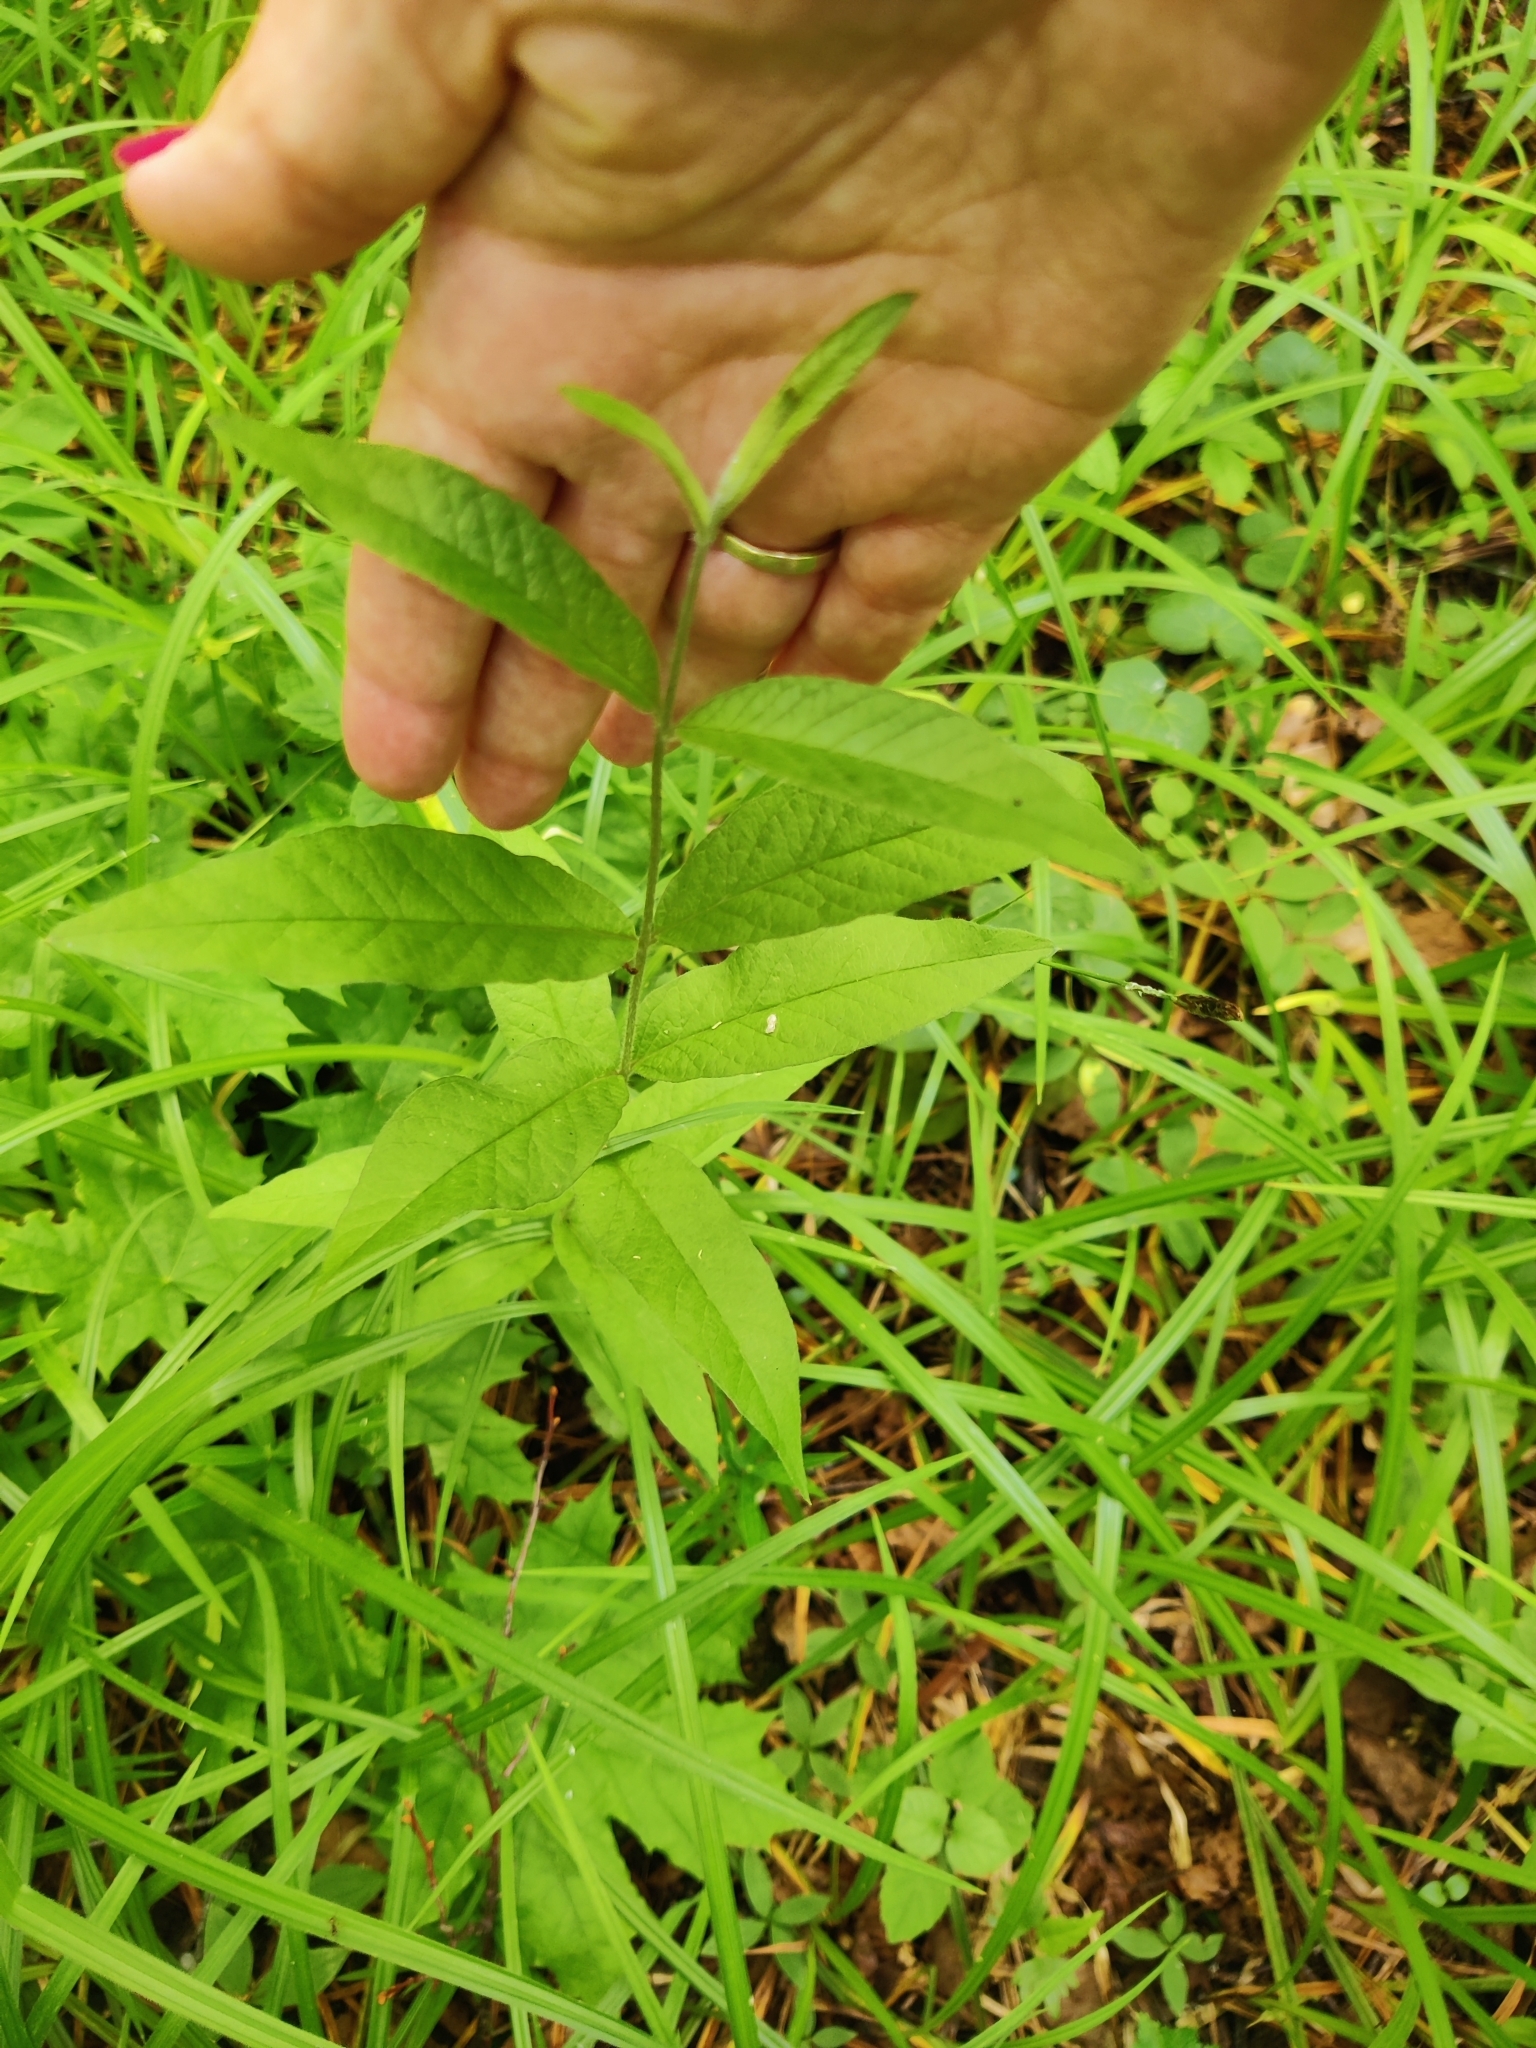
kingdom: Plantae
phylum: Tracheophyta
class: Magnoliopsida
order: Ericales
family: Primulaceae
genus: Lysimachia
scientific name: Lysimachia vulgaris
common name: Yellow loosestrife
